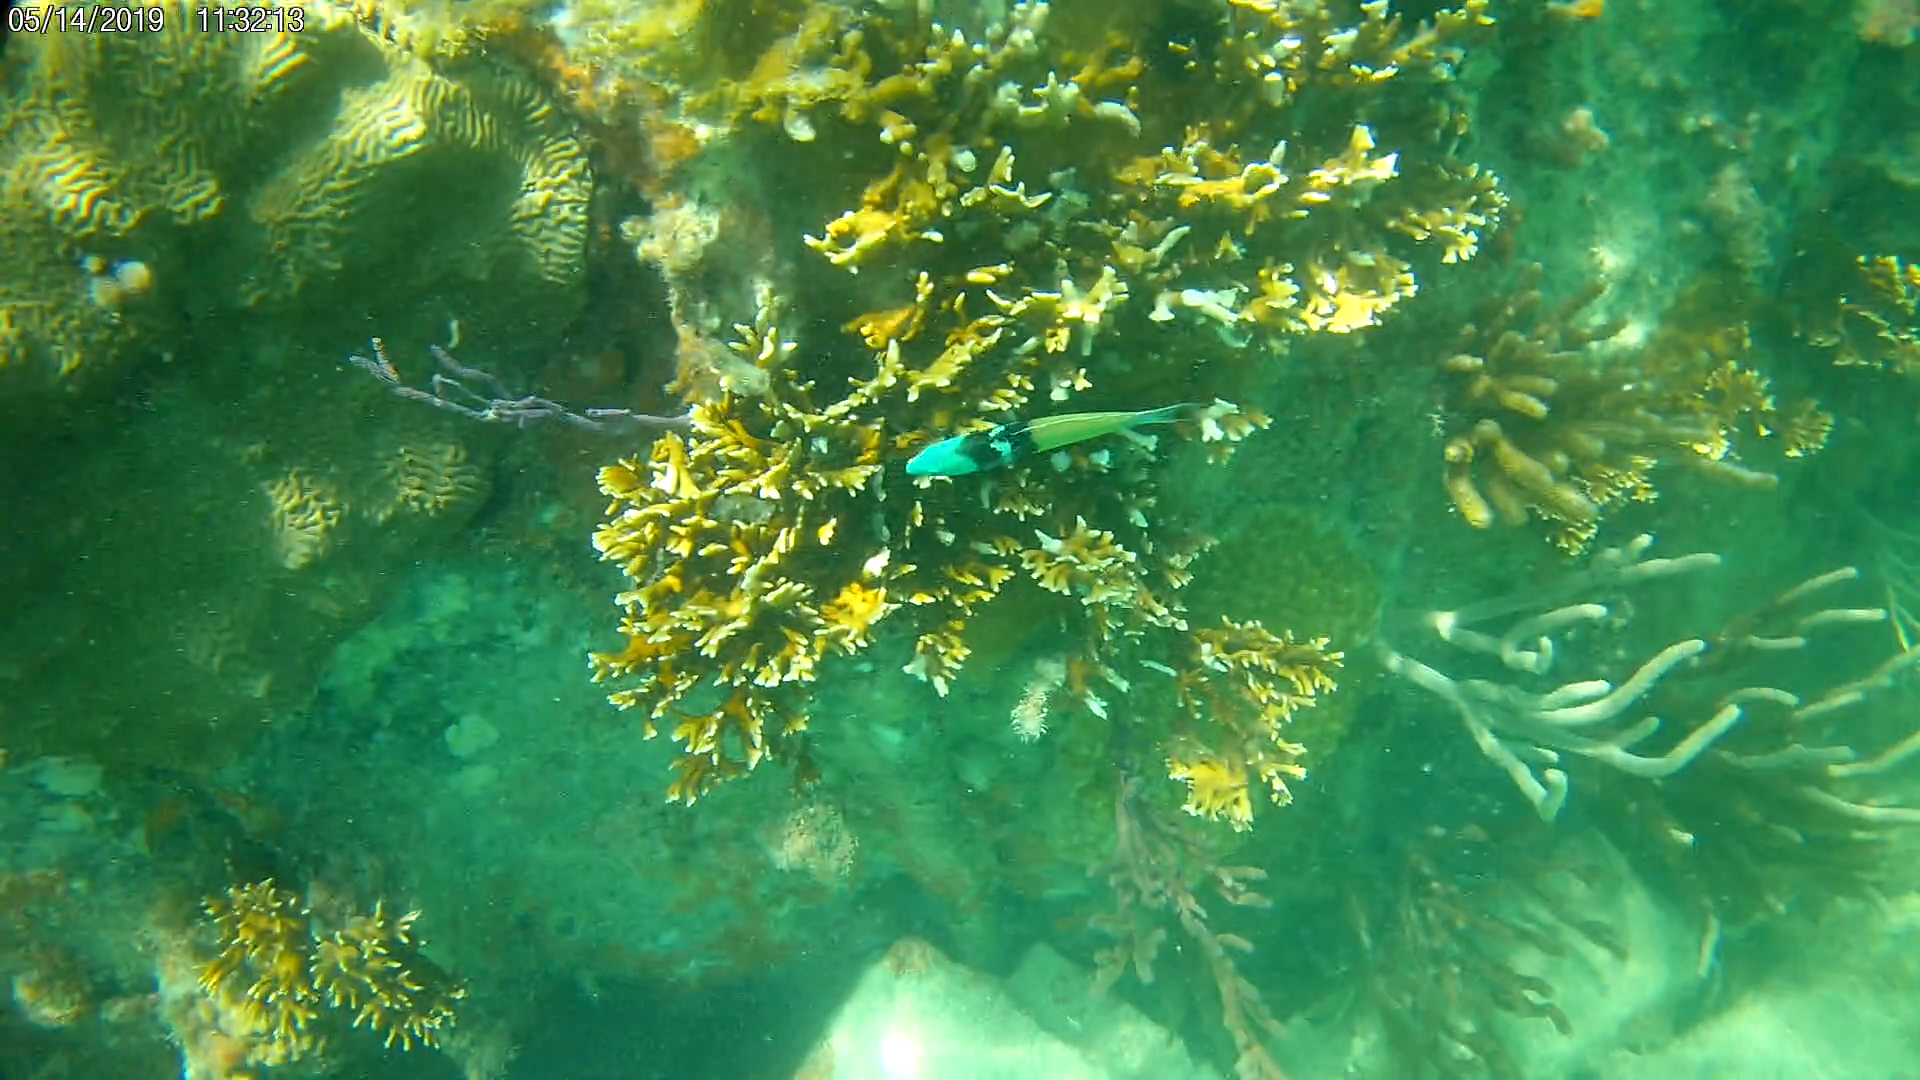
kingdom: Animalia
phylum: Chordata
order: Perciformes
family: Labridae
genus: Thalassoma
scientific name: Thalassoma bifasciatum
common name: Bluehead wrasse
